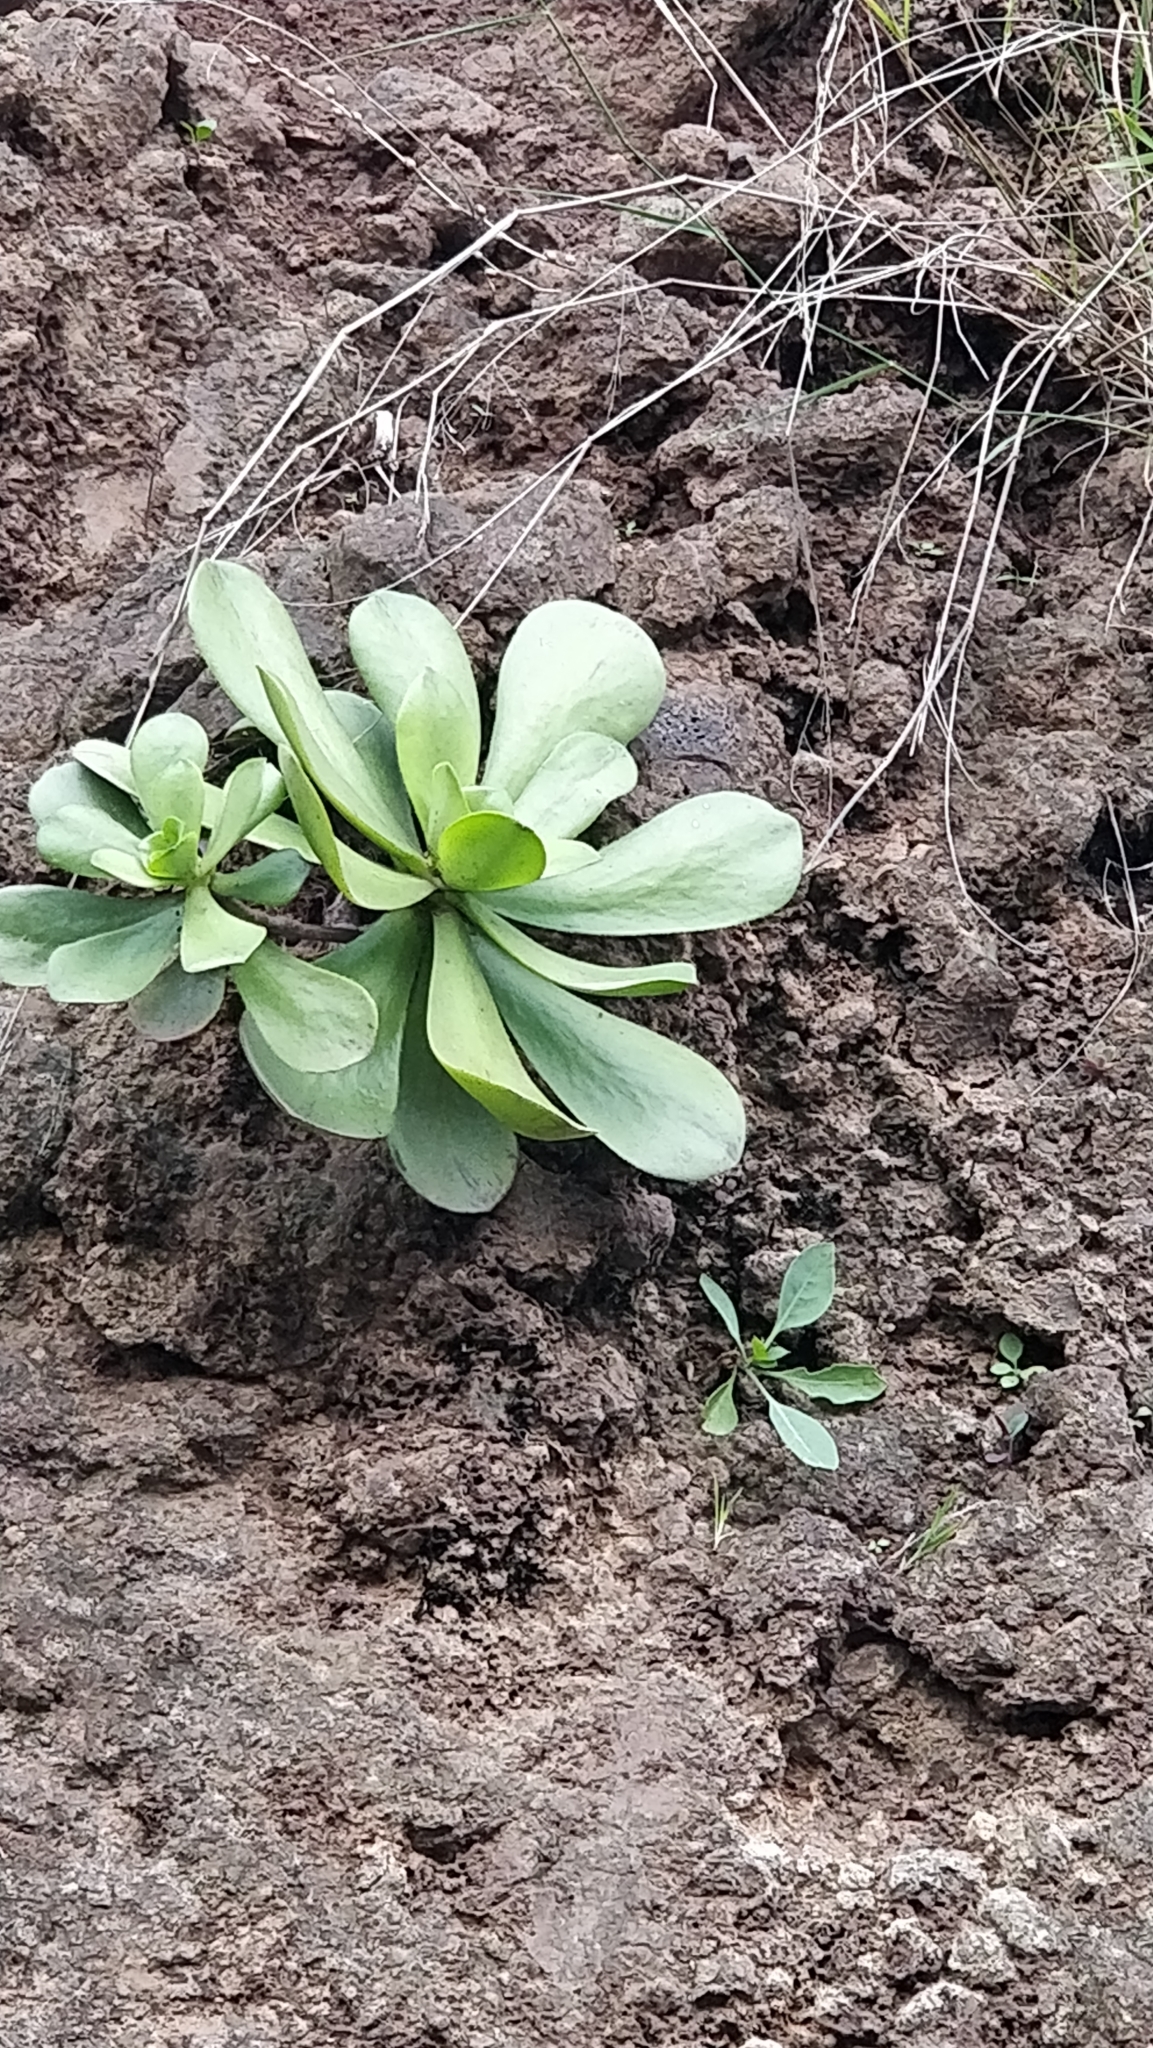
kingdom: Plantae
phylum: Tracheophyta
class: Magnoliopsida
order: Saxifragales
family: Crassulaceae
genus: Aeonium
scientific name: Aeonium glutinosum
